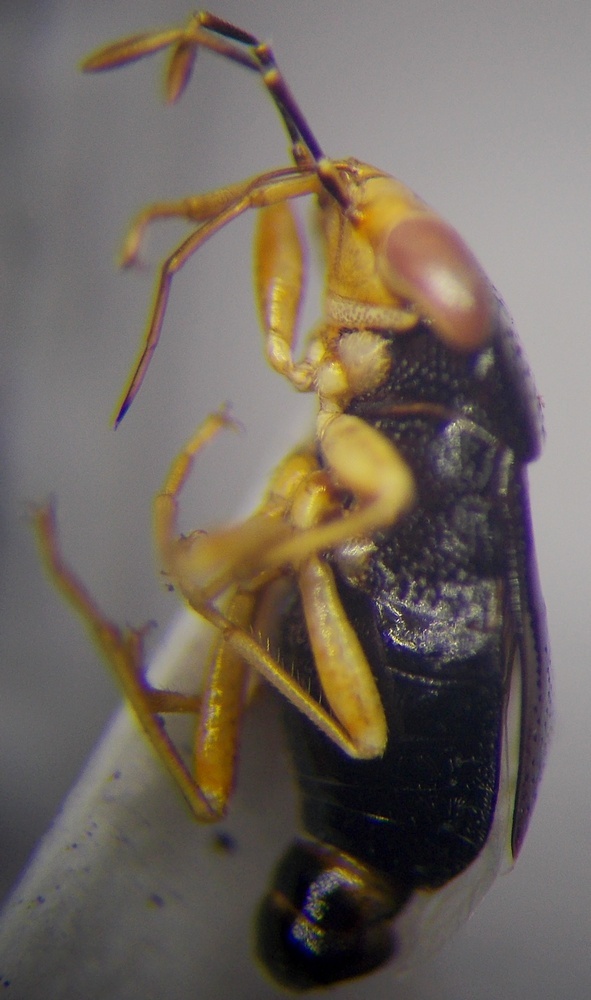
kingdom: Animalia
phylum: Arthropoda
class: Insecta
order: Hemiptera
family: Geocoridae
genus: Geocoris
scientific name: Geocoris erythrocephala
